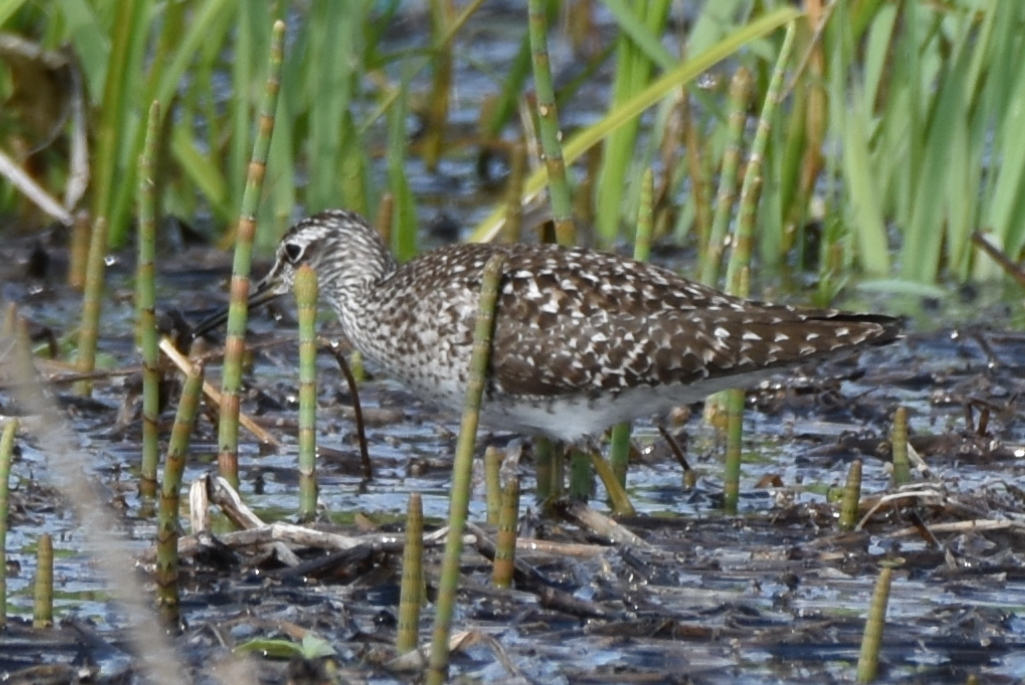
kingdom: Animalia
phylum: Chordata
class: Aves
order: Charadriiformes
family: Scolopacidae
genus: Tringa
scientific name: Tringa glareola
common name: Wood sandpiper
